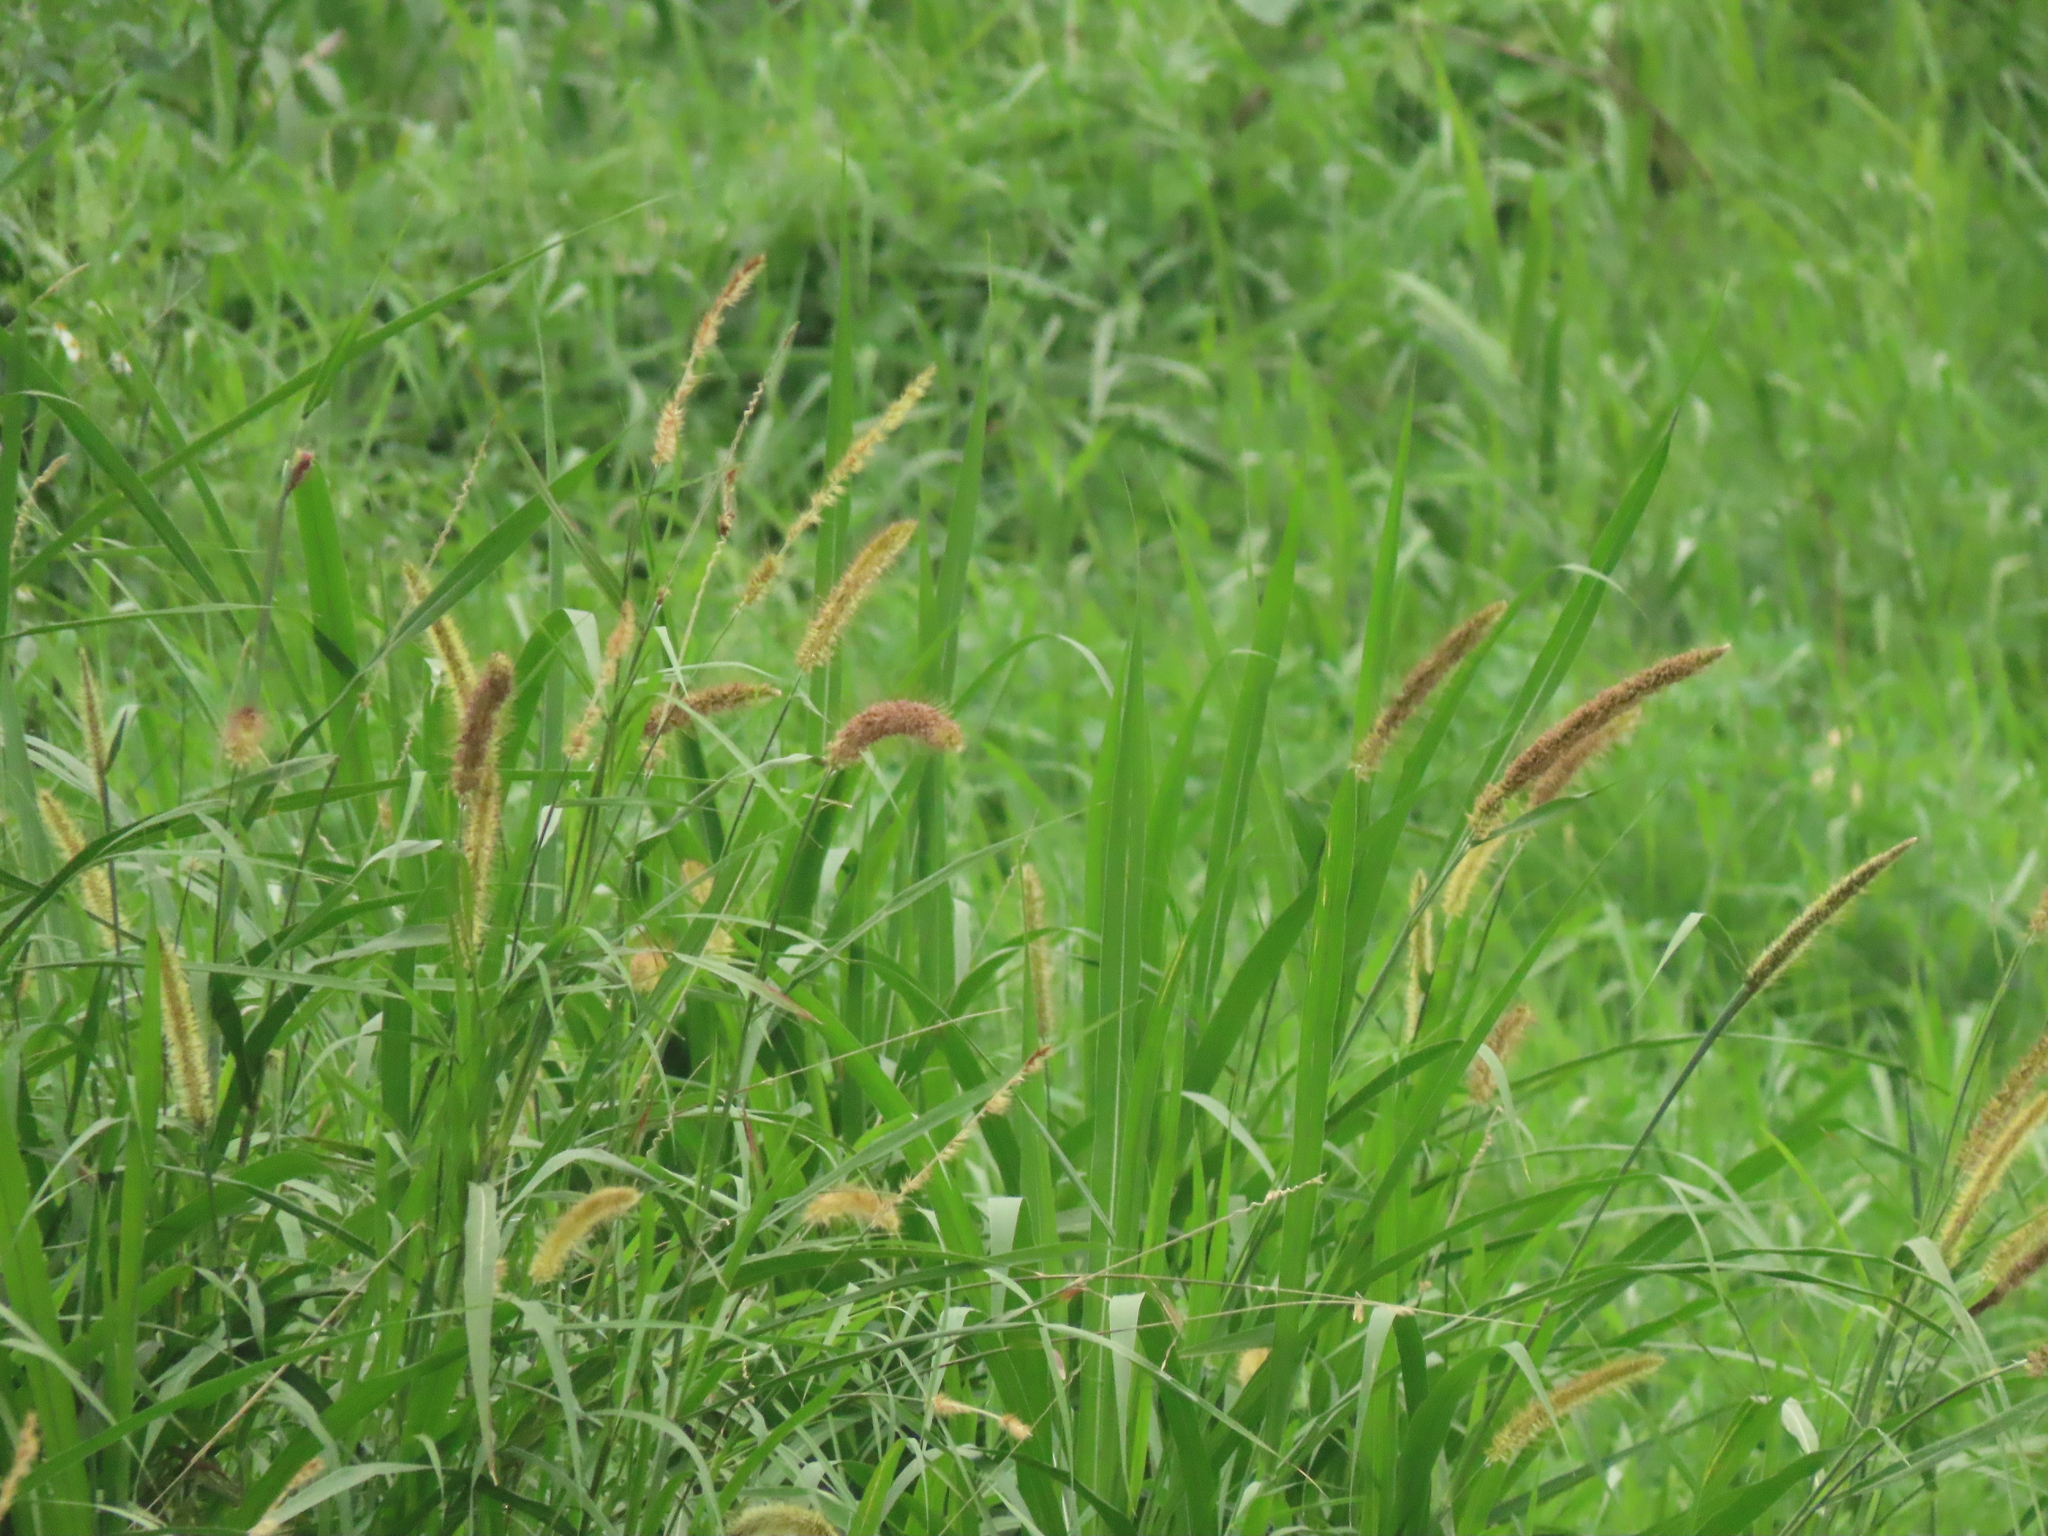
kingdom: Plantae
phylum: Tracheophyta
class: Liliopsida
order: Poales
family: Poaceae
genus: Cenchrus
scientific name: Cenchrus purpureus
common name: Elephant grass
